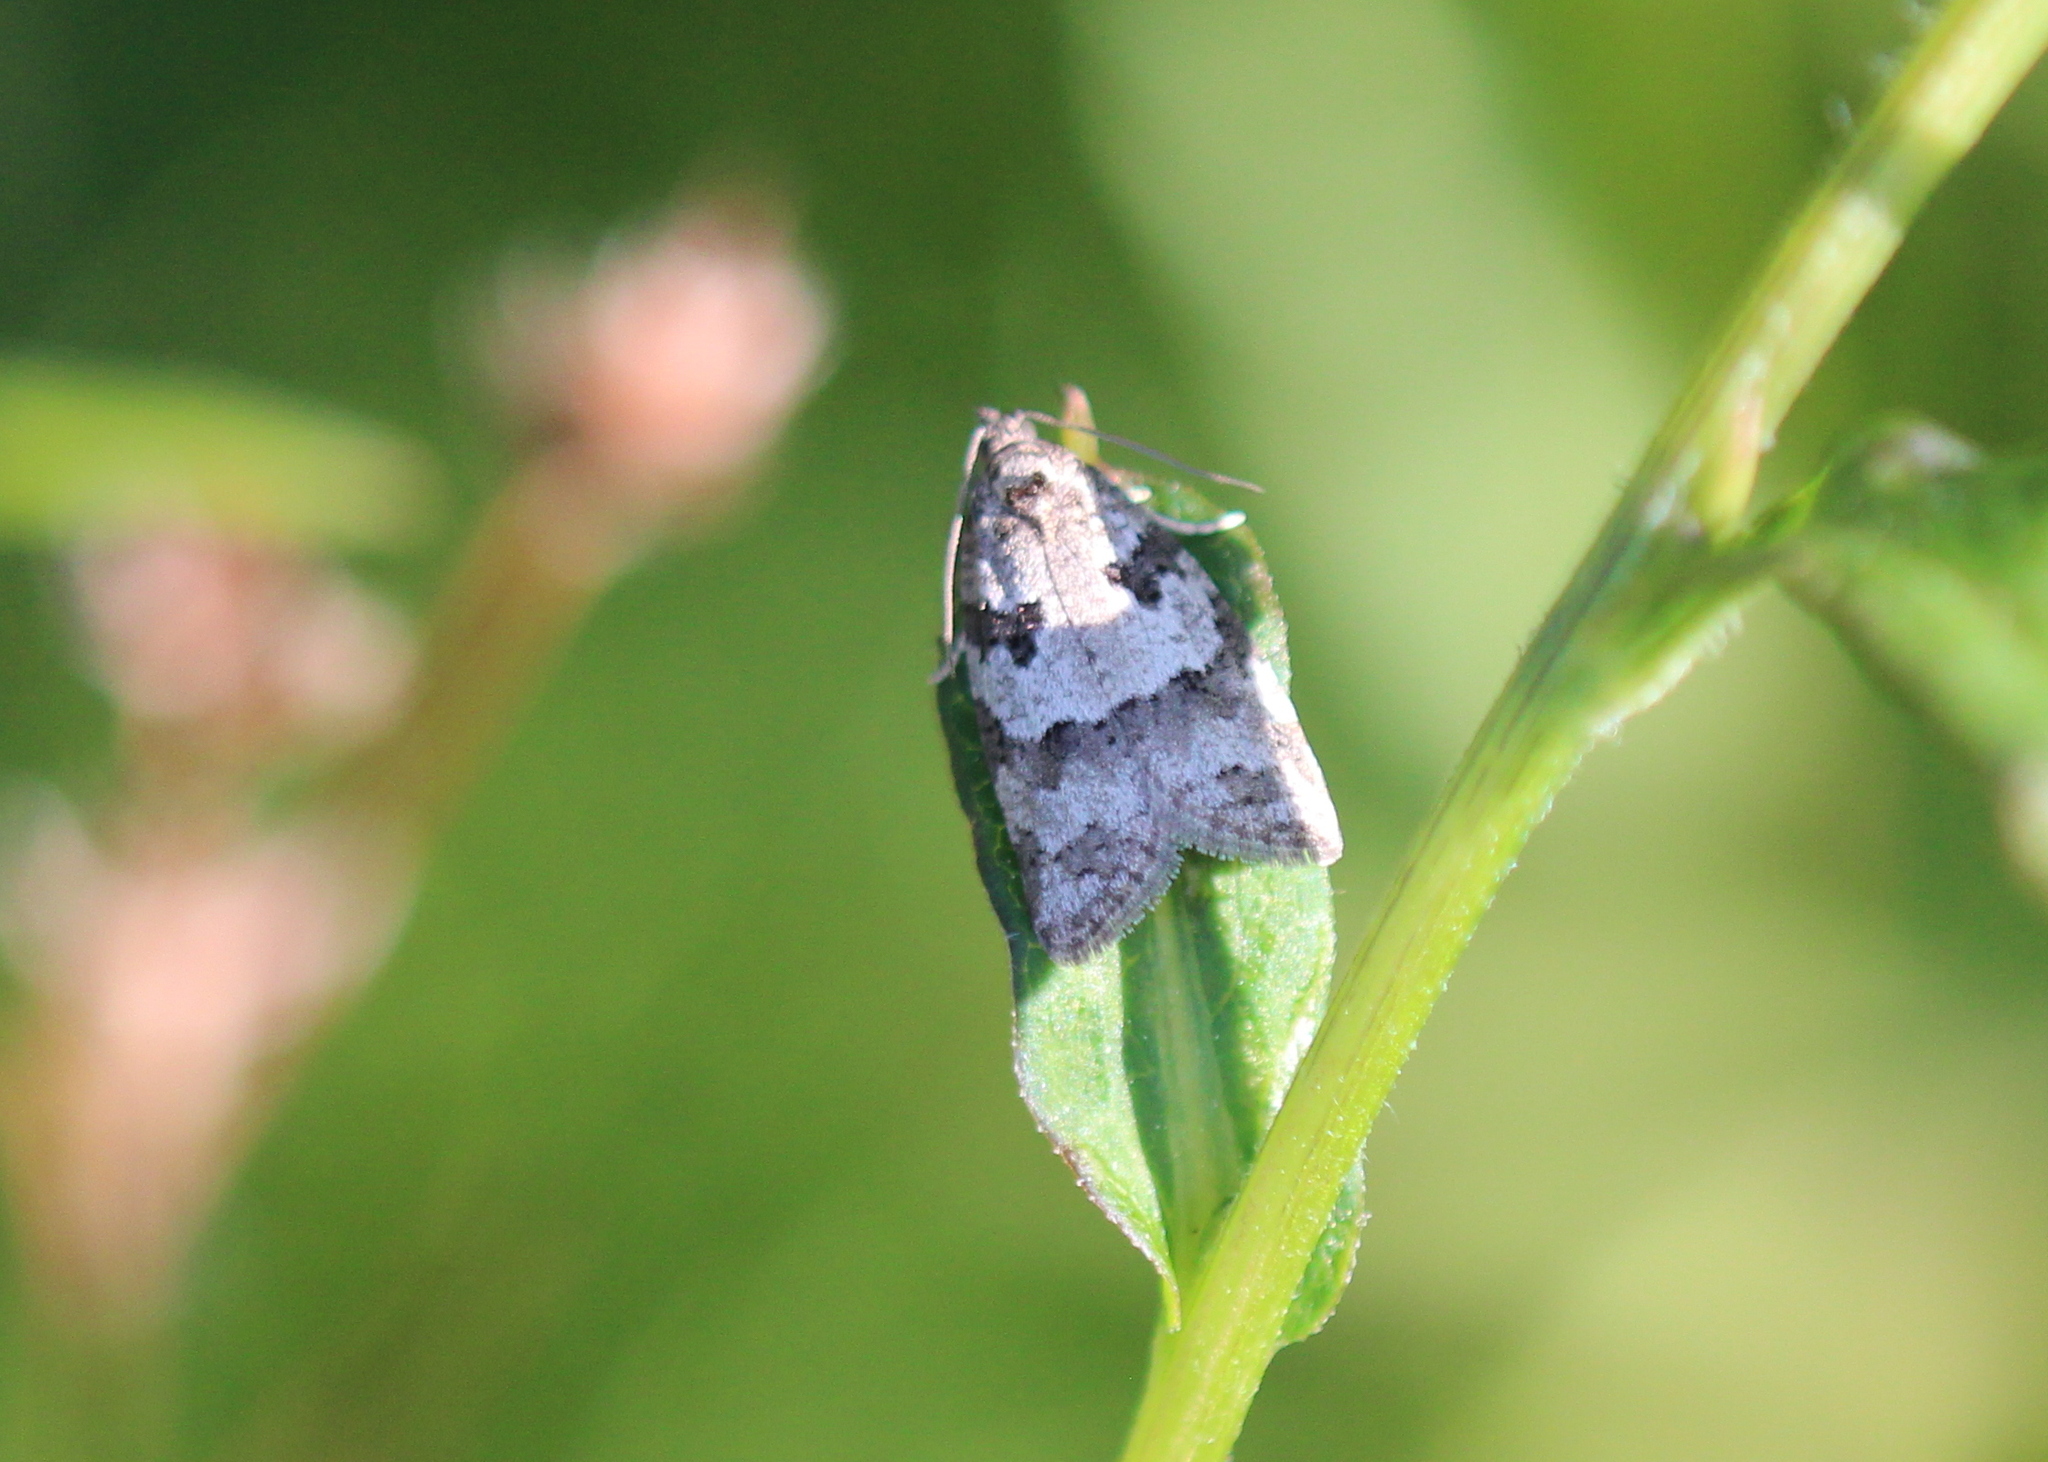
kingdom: Animalia
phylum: Arthropoda
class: Insecta
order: Lepidoptera
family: Tortricidae
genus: Cnephasia
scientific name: Cnephasia stephensiana
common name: Grey tortrix
